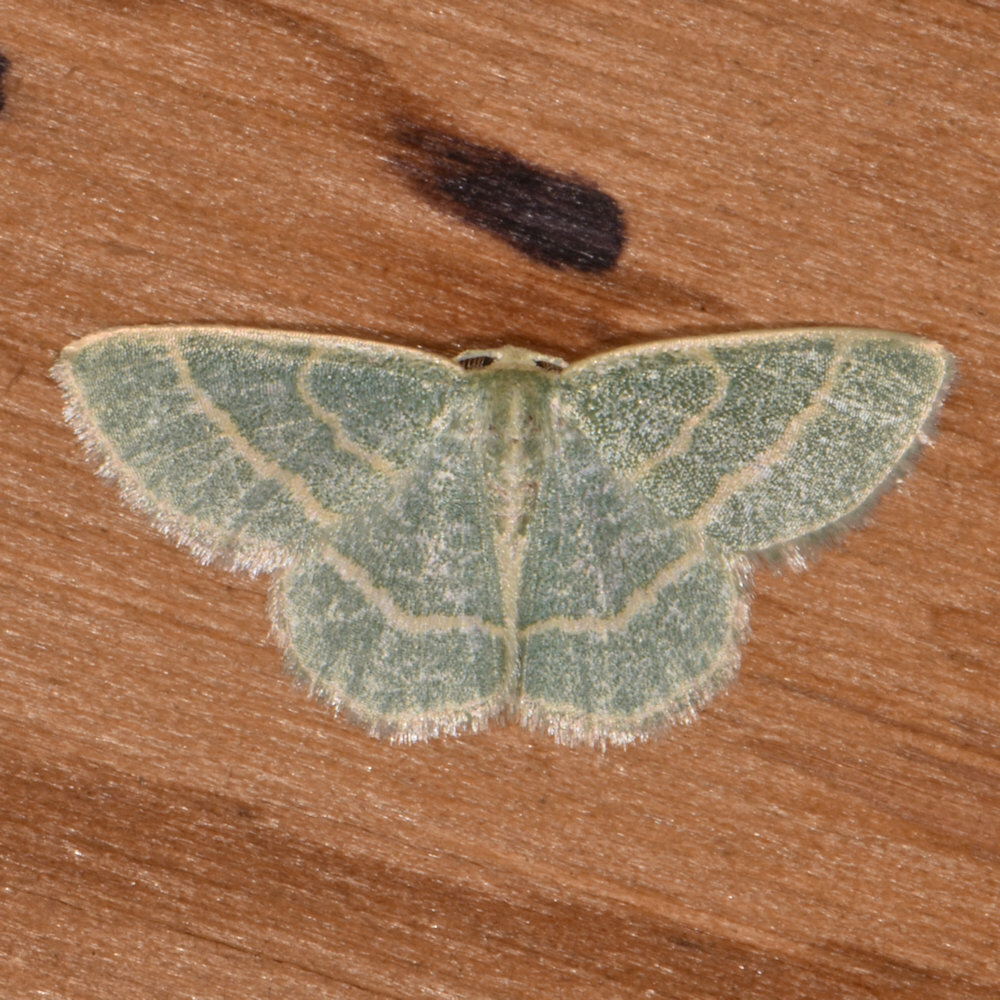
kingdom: Animalia
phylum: Arthropoda
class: Insecta
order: Lepidoptera
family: Geometridae
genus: Chlorochlamys
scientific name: Chlorochlamys chloroleucaria
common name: Blackberry looper
